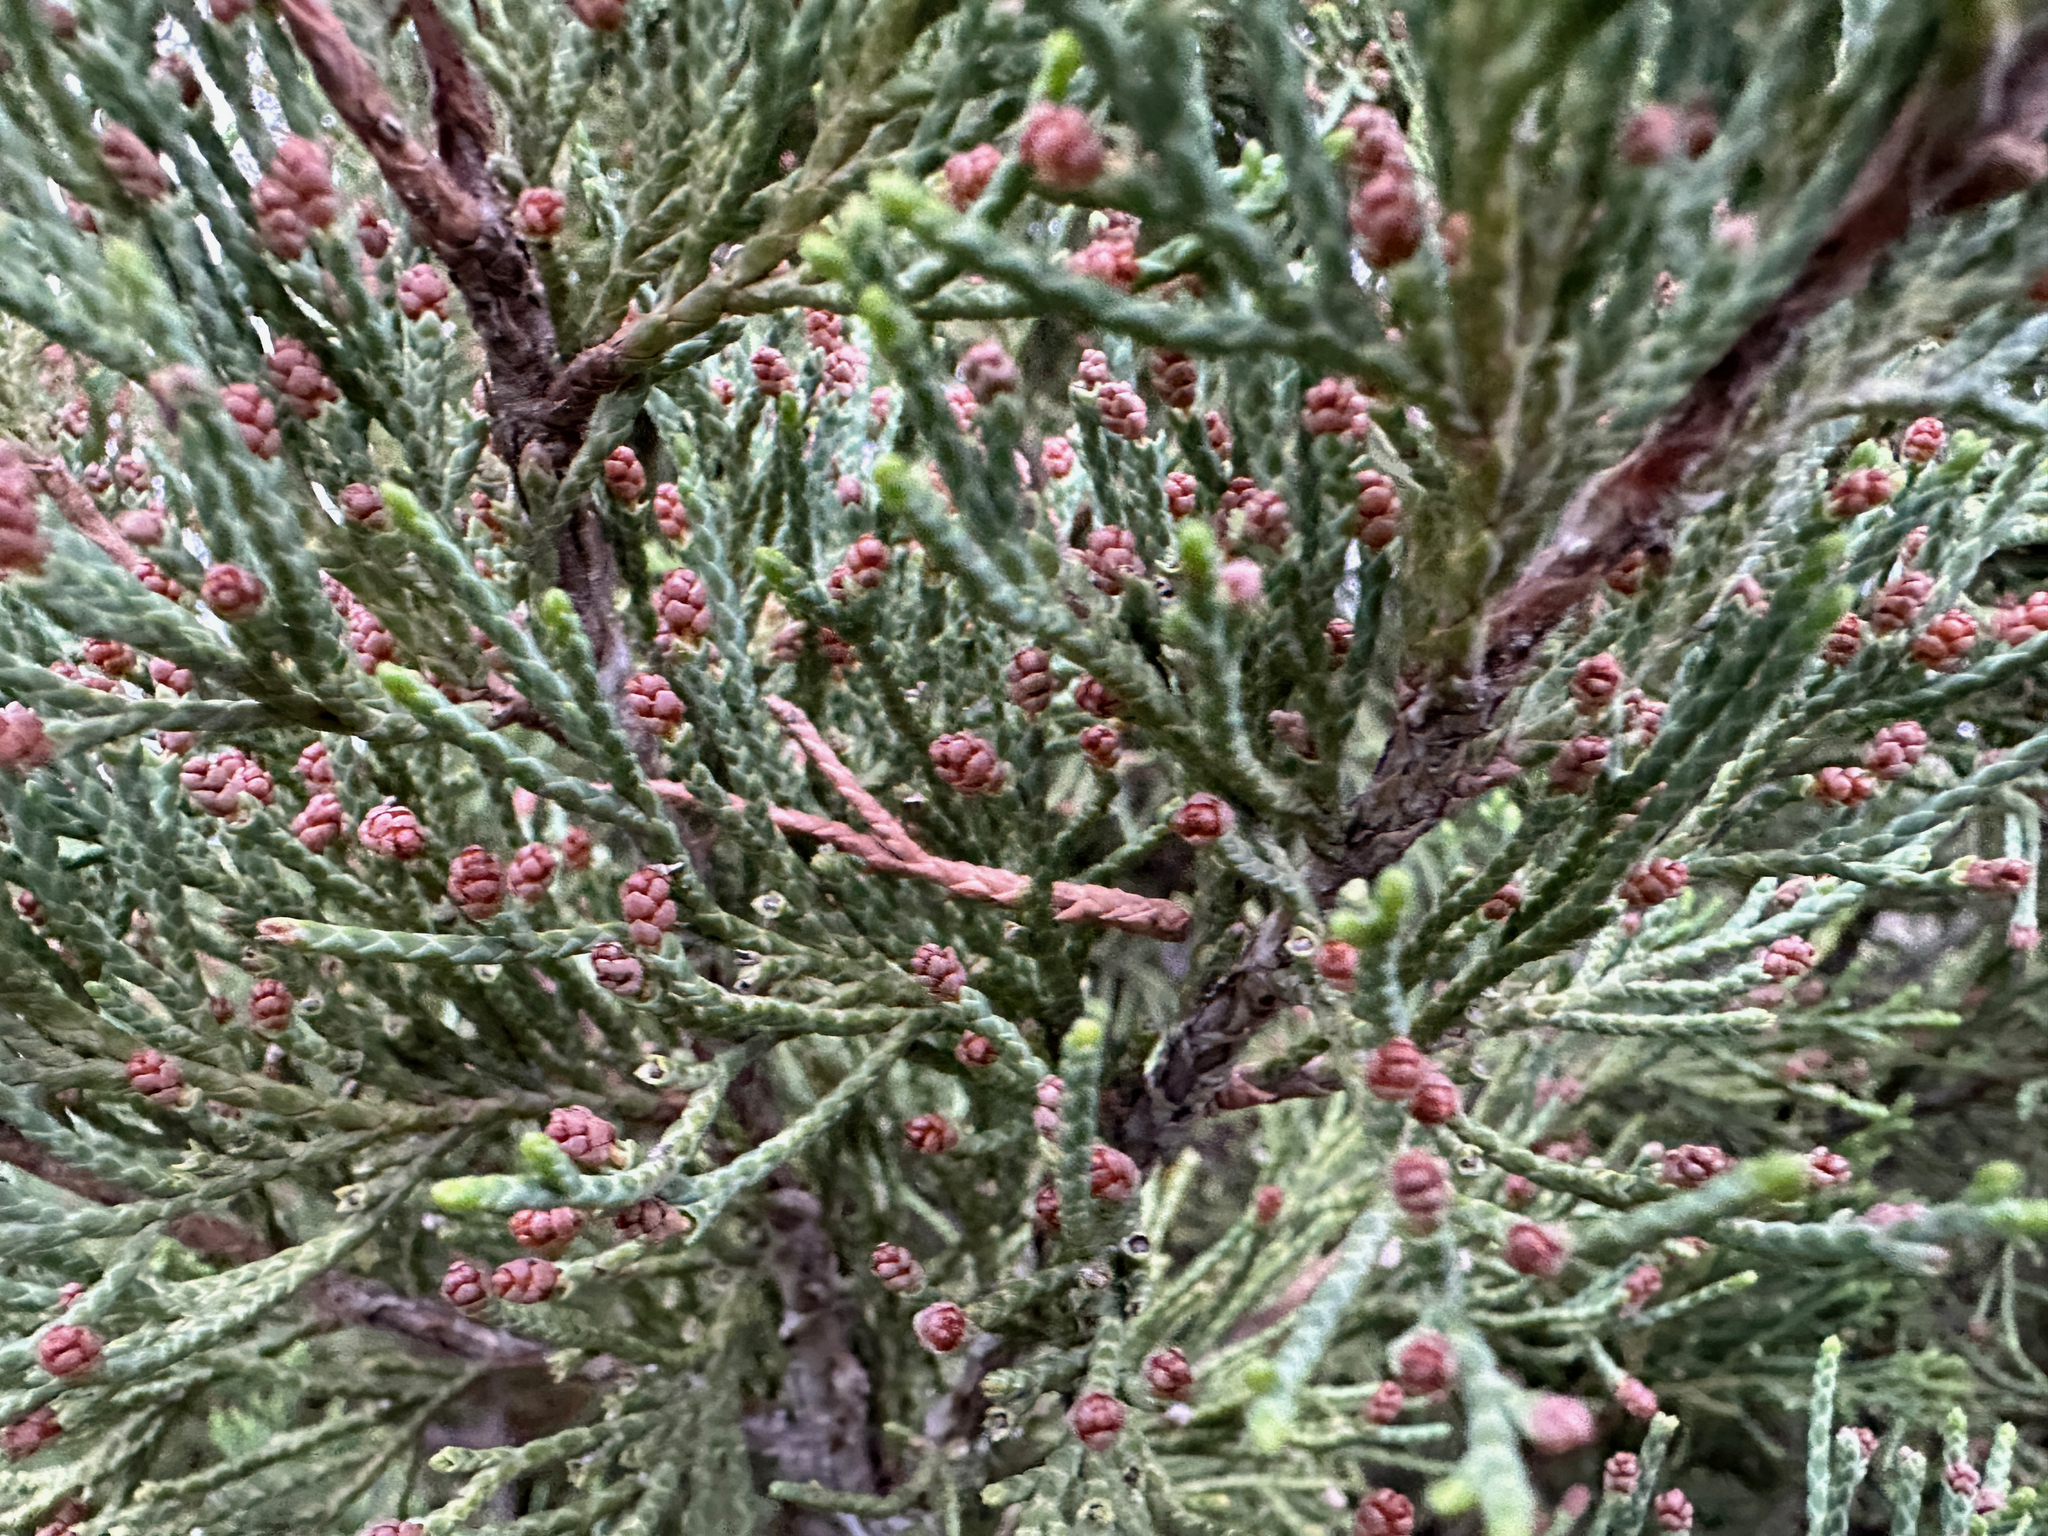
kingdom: Plantae
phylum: Tracheophyta
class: Pinopsida
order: Pinales
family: Cupressaceae
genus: Juniperus
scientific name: Juniperus scopulorum
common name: Rocky mountain juniper
